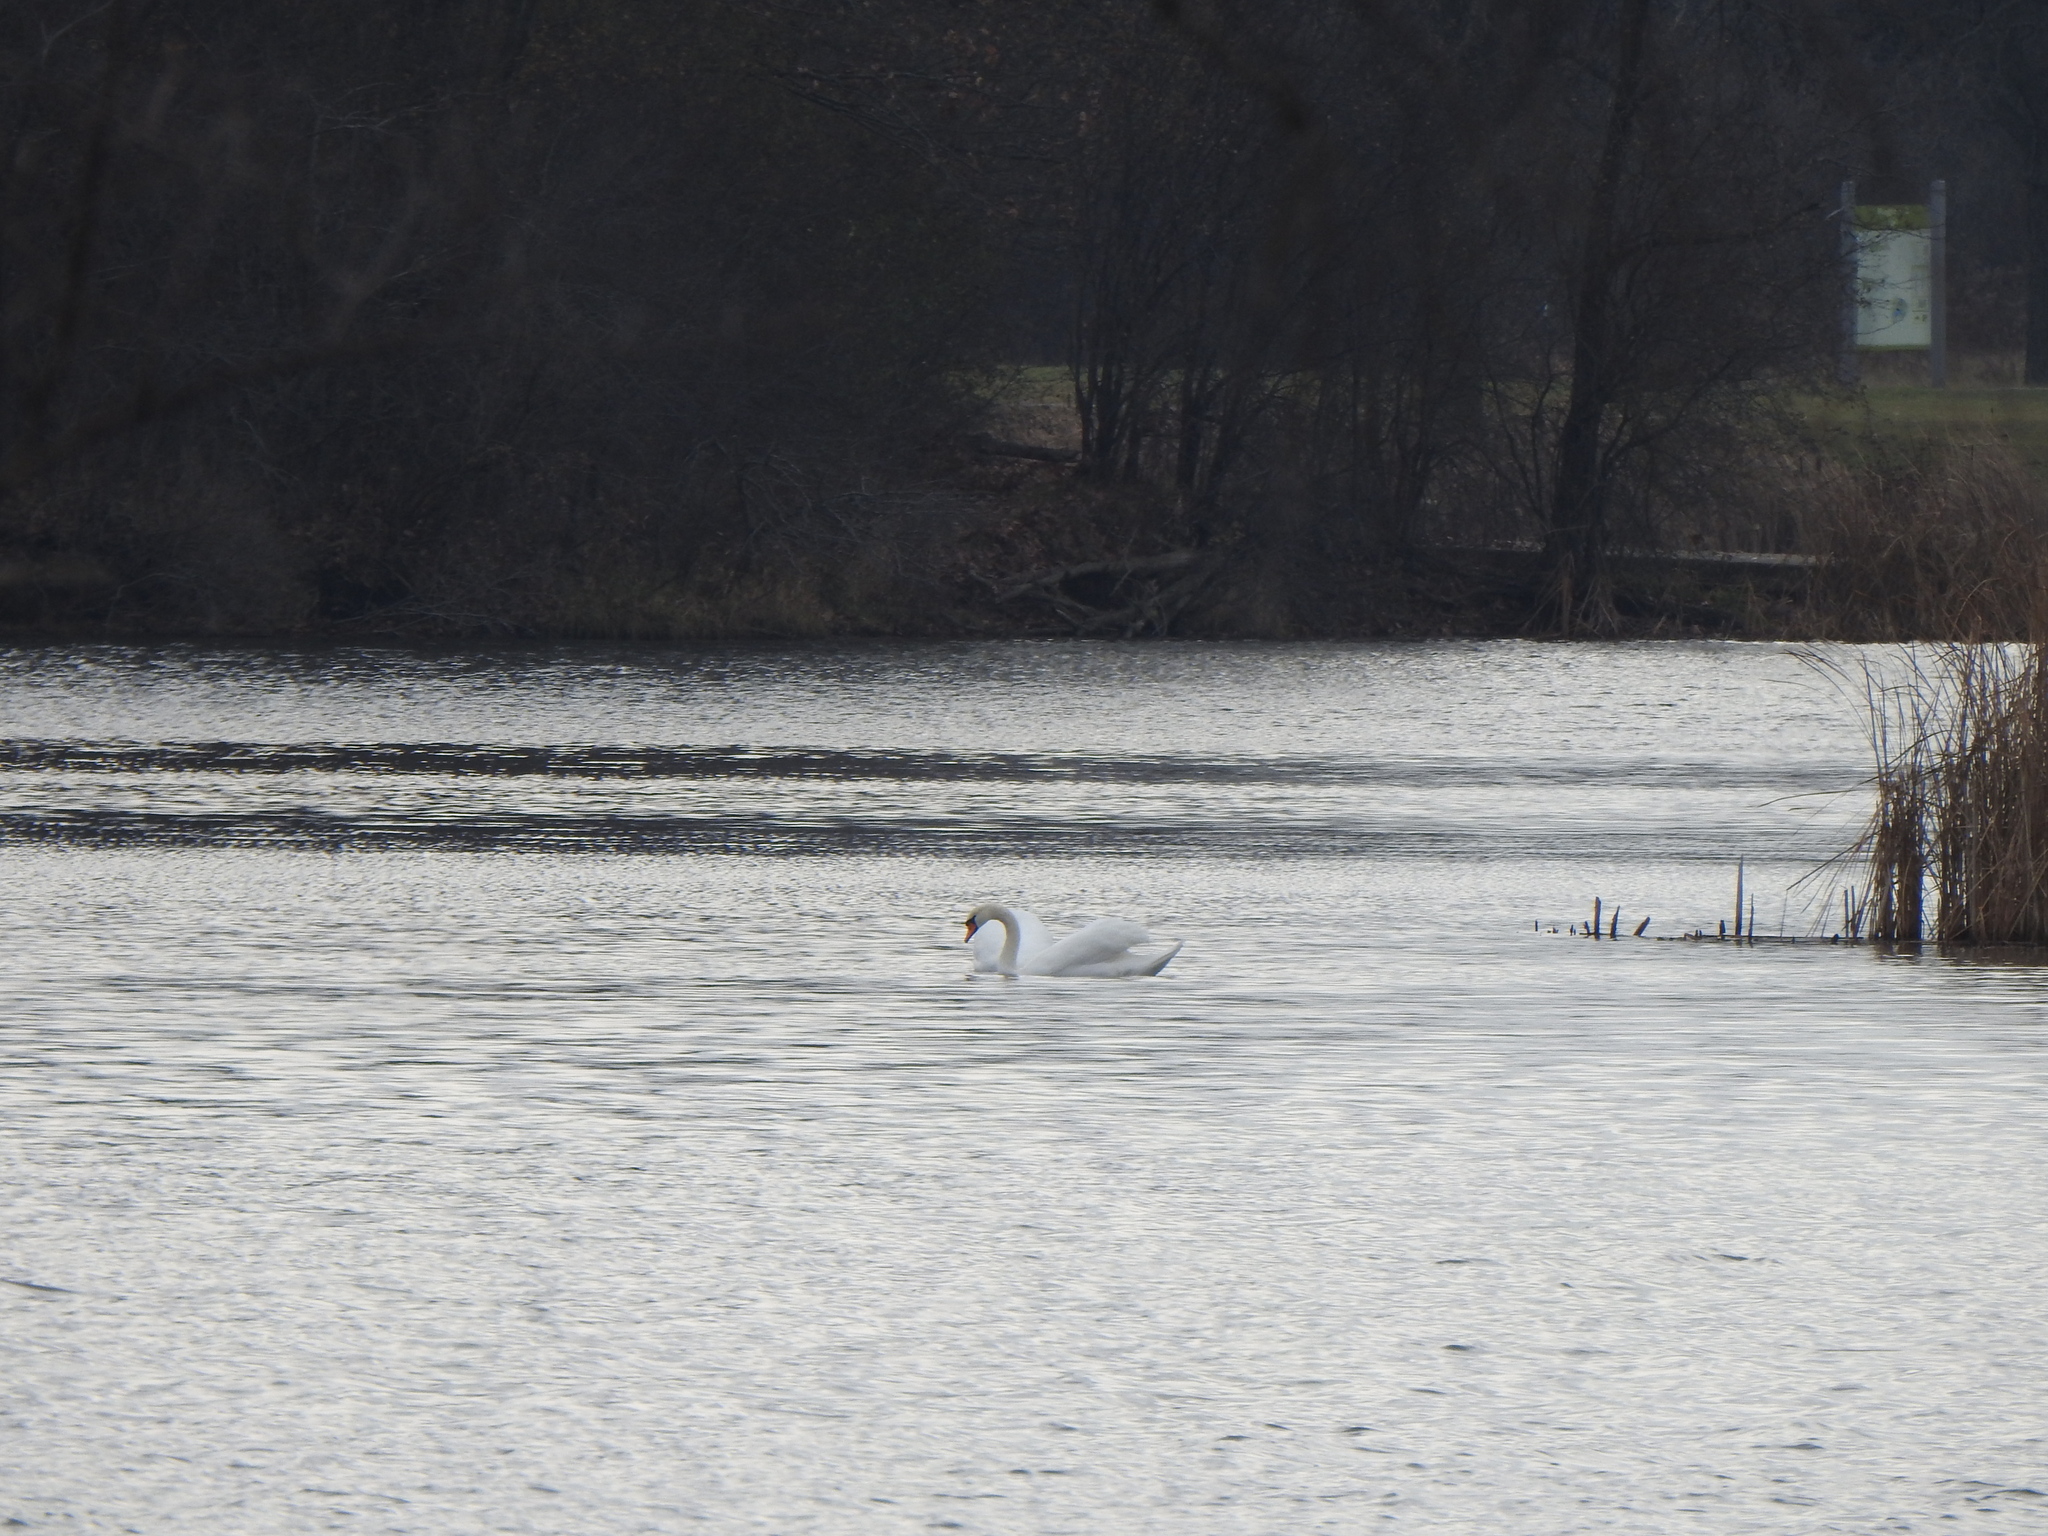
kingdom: Animalia
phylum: Chordata
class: Aves
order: Anseriformes
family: Anatidae
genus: Cygnus
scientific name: Cygnus olor
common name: Mute swan
